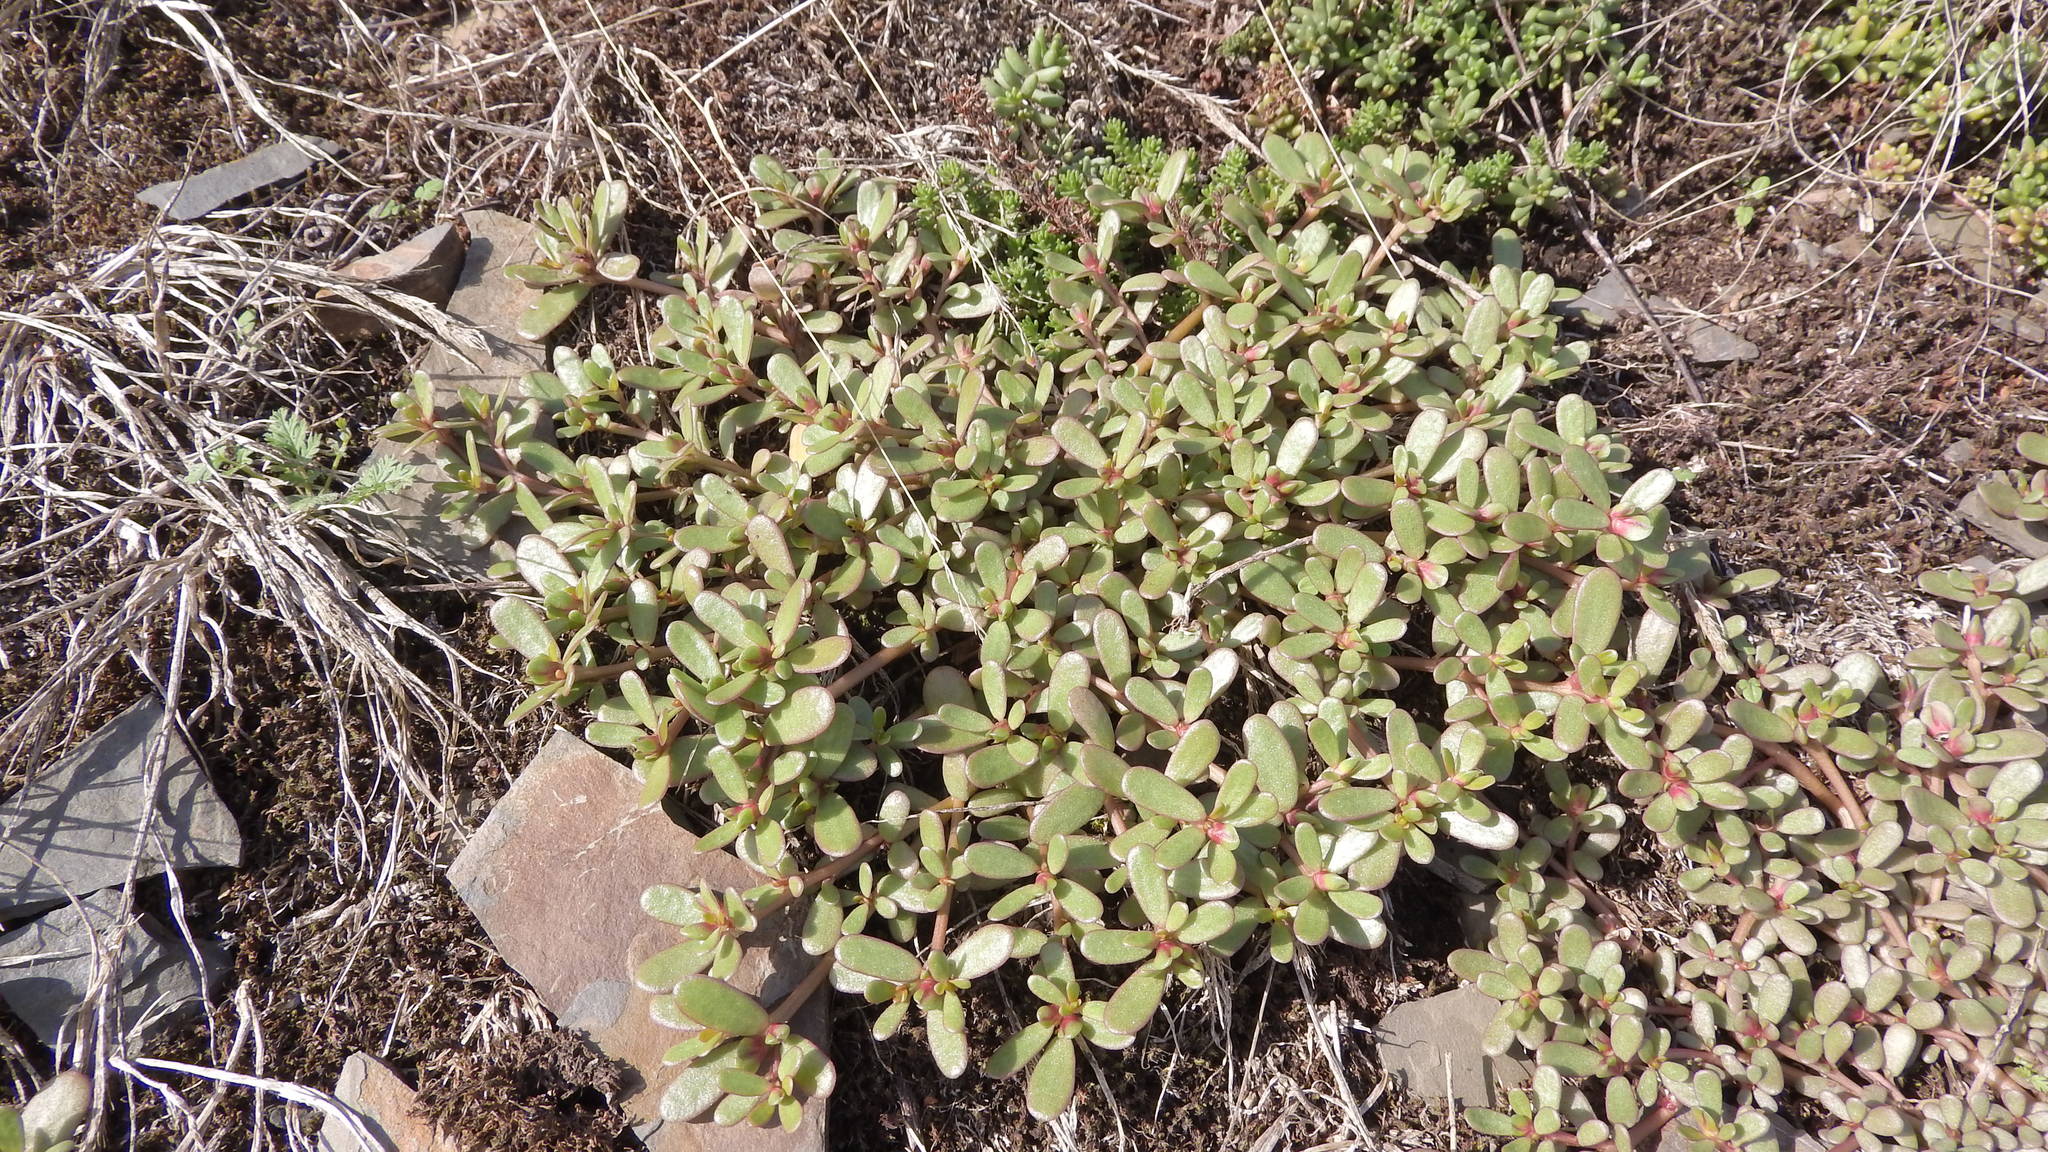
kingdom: Plantae
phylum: Tracheophyta
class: Magnoliopsida
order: Caryophyllales
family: Portulacaceae
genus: Portulaca
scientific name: Portulaca oleracea
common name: Common purslane
